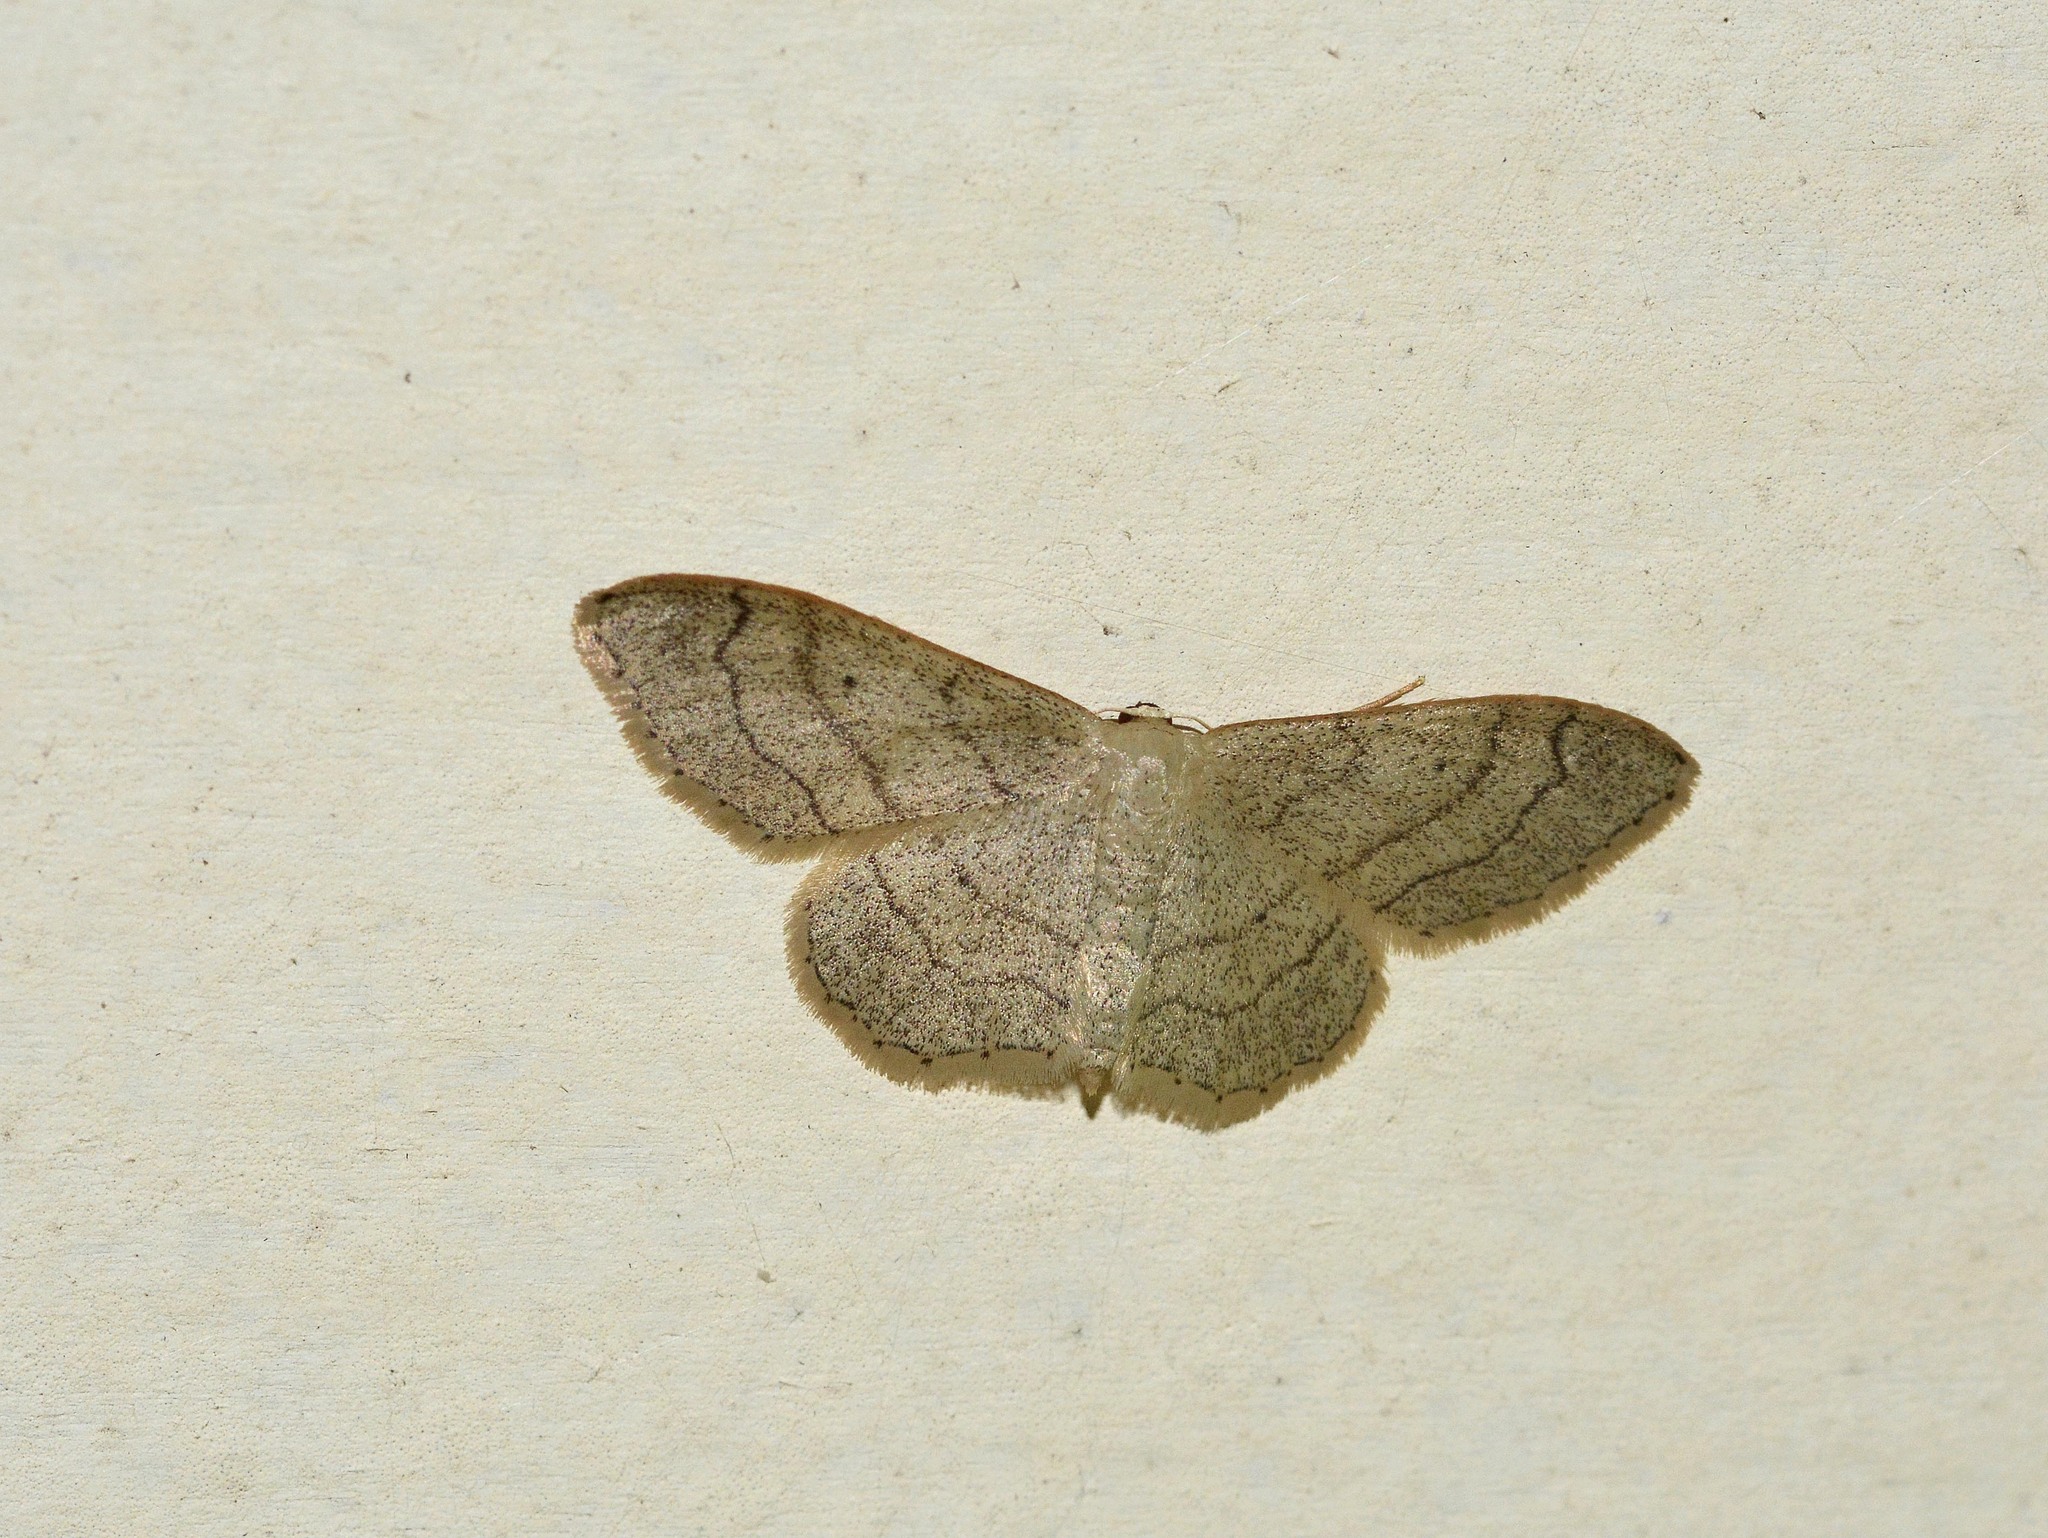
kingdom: Animalia
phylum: Arthropoda
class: Insecta
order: Lepidoptera
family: Geometridae
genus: Idaea
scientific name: Idaea aversata
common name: Riband wave
